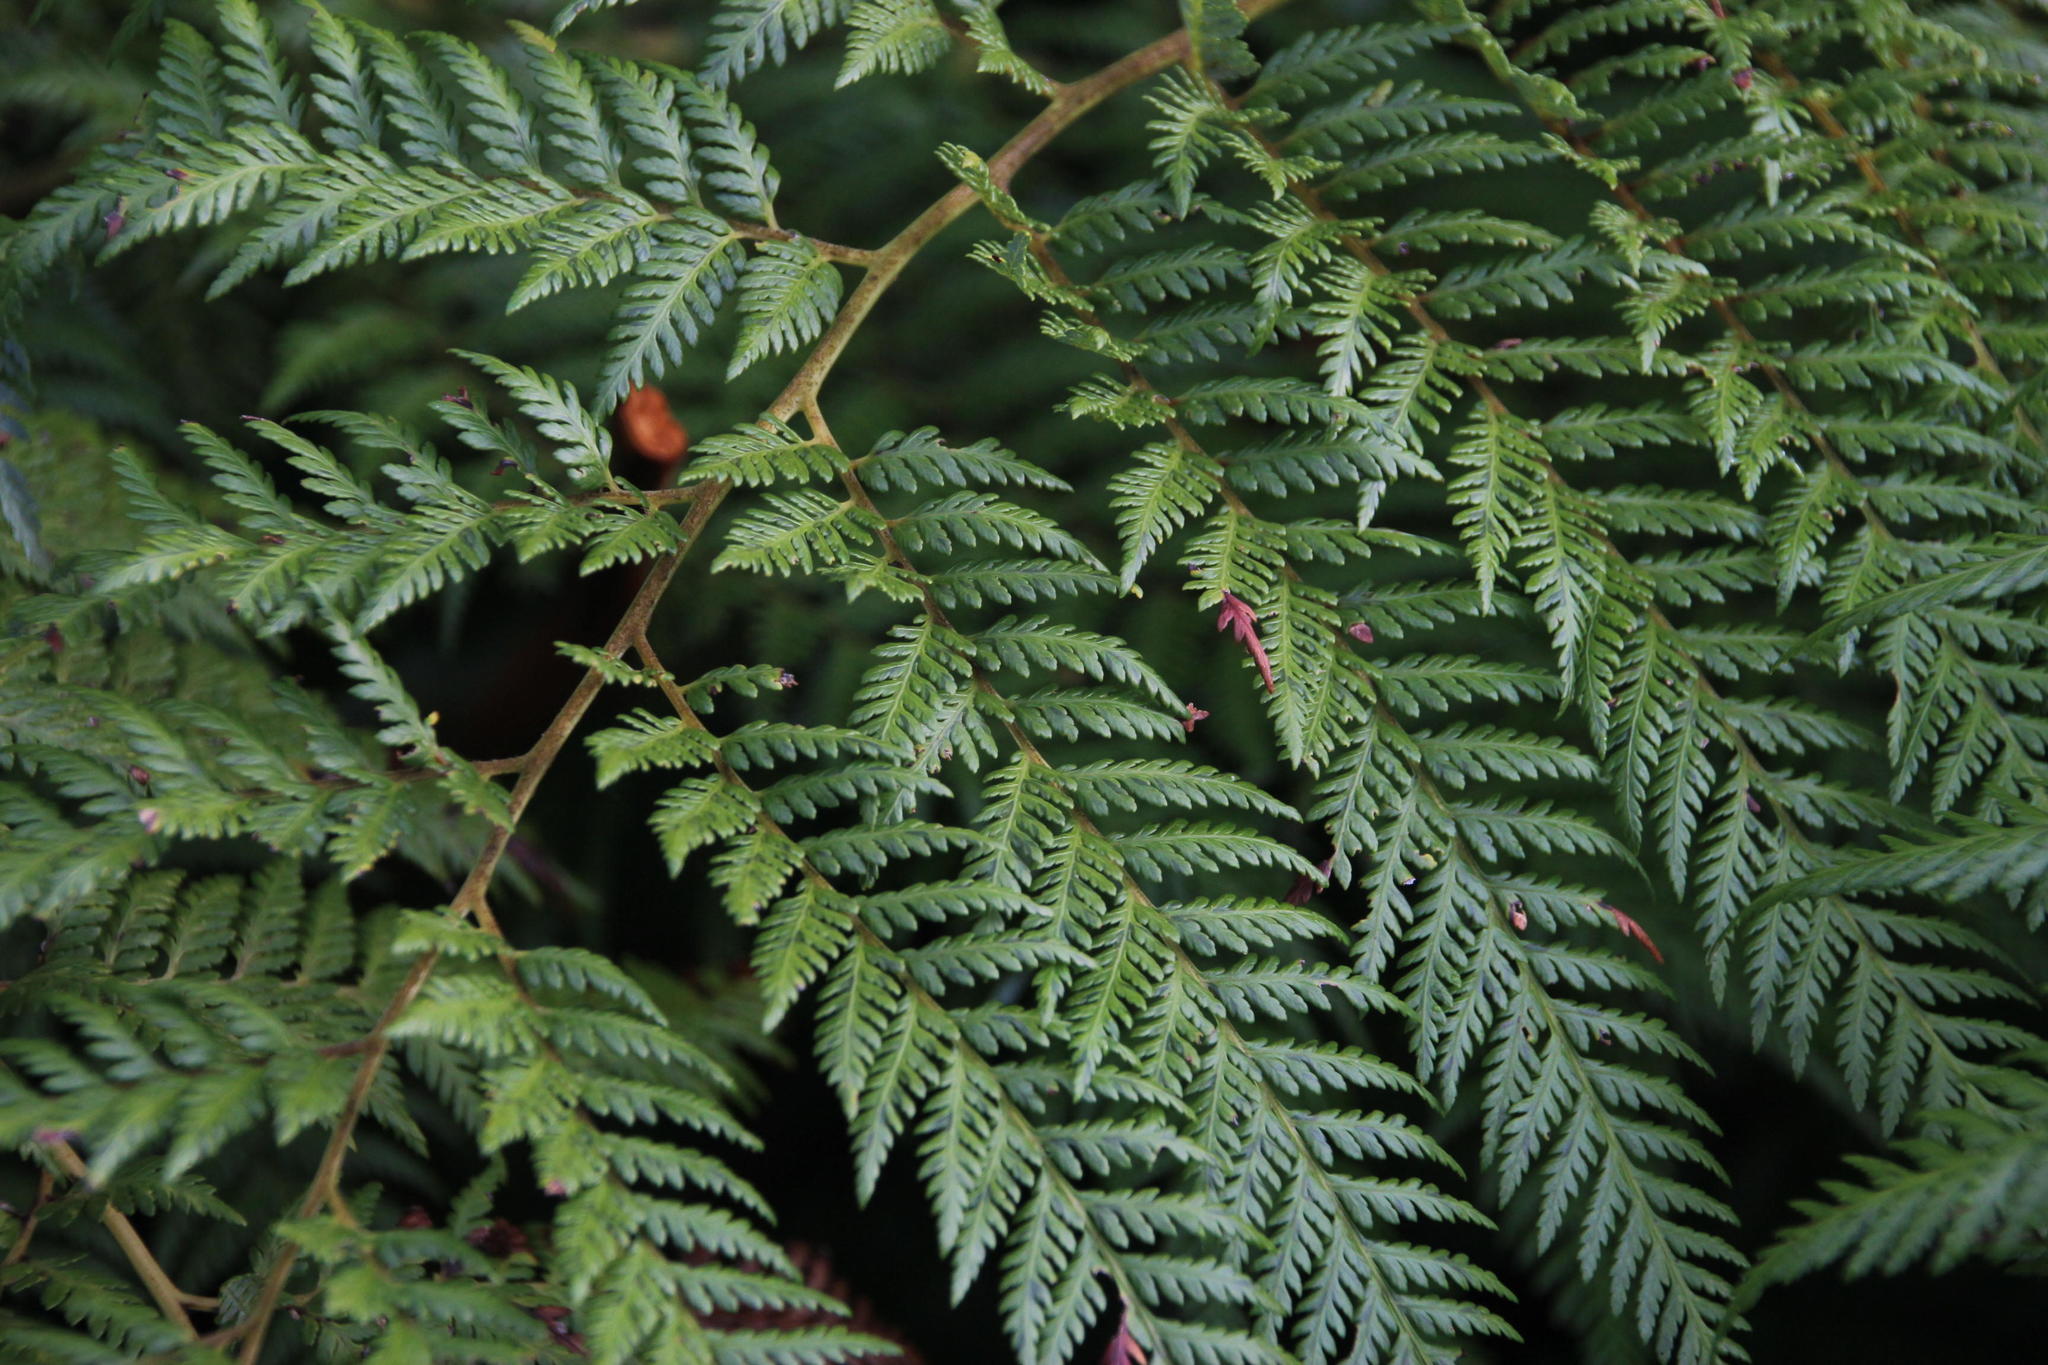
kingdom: Plantae
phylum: Tracheophyta
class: Polypodiopsida
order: Cyatheales
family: Dicksoniaceae
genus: Lophosoria
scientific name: Lophosoria quadripinnata
